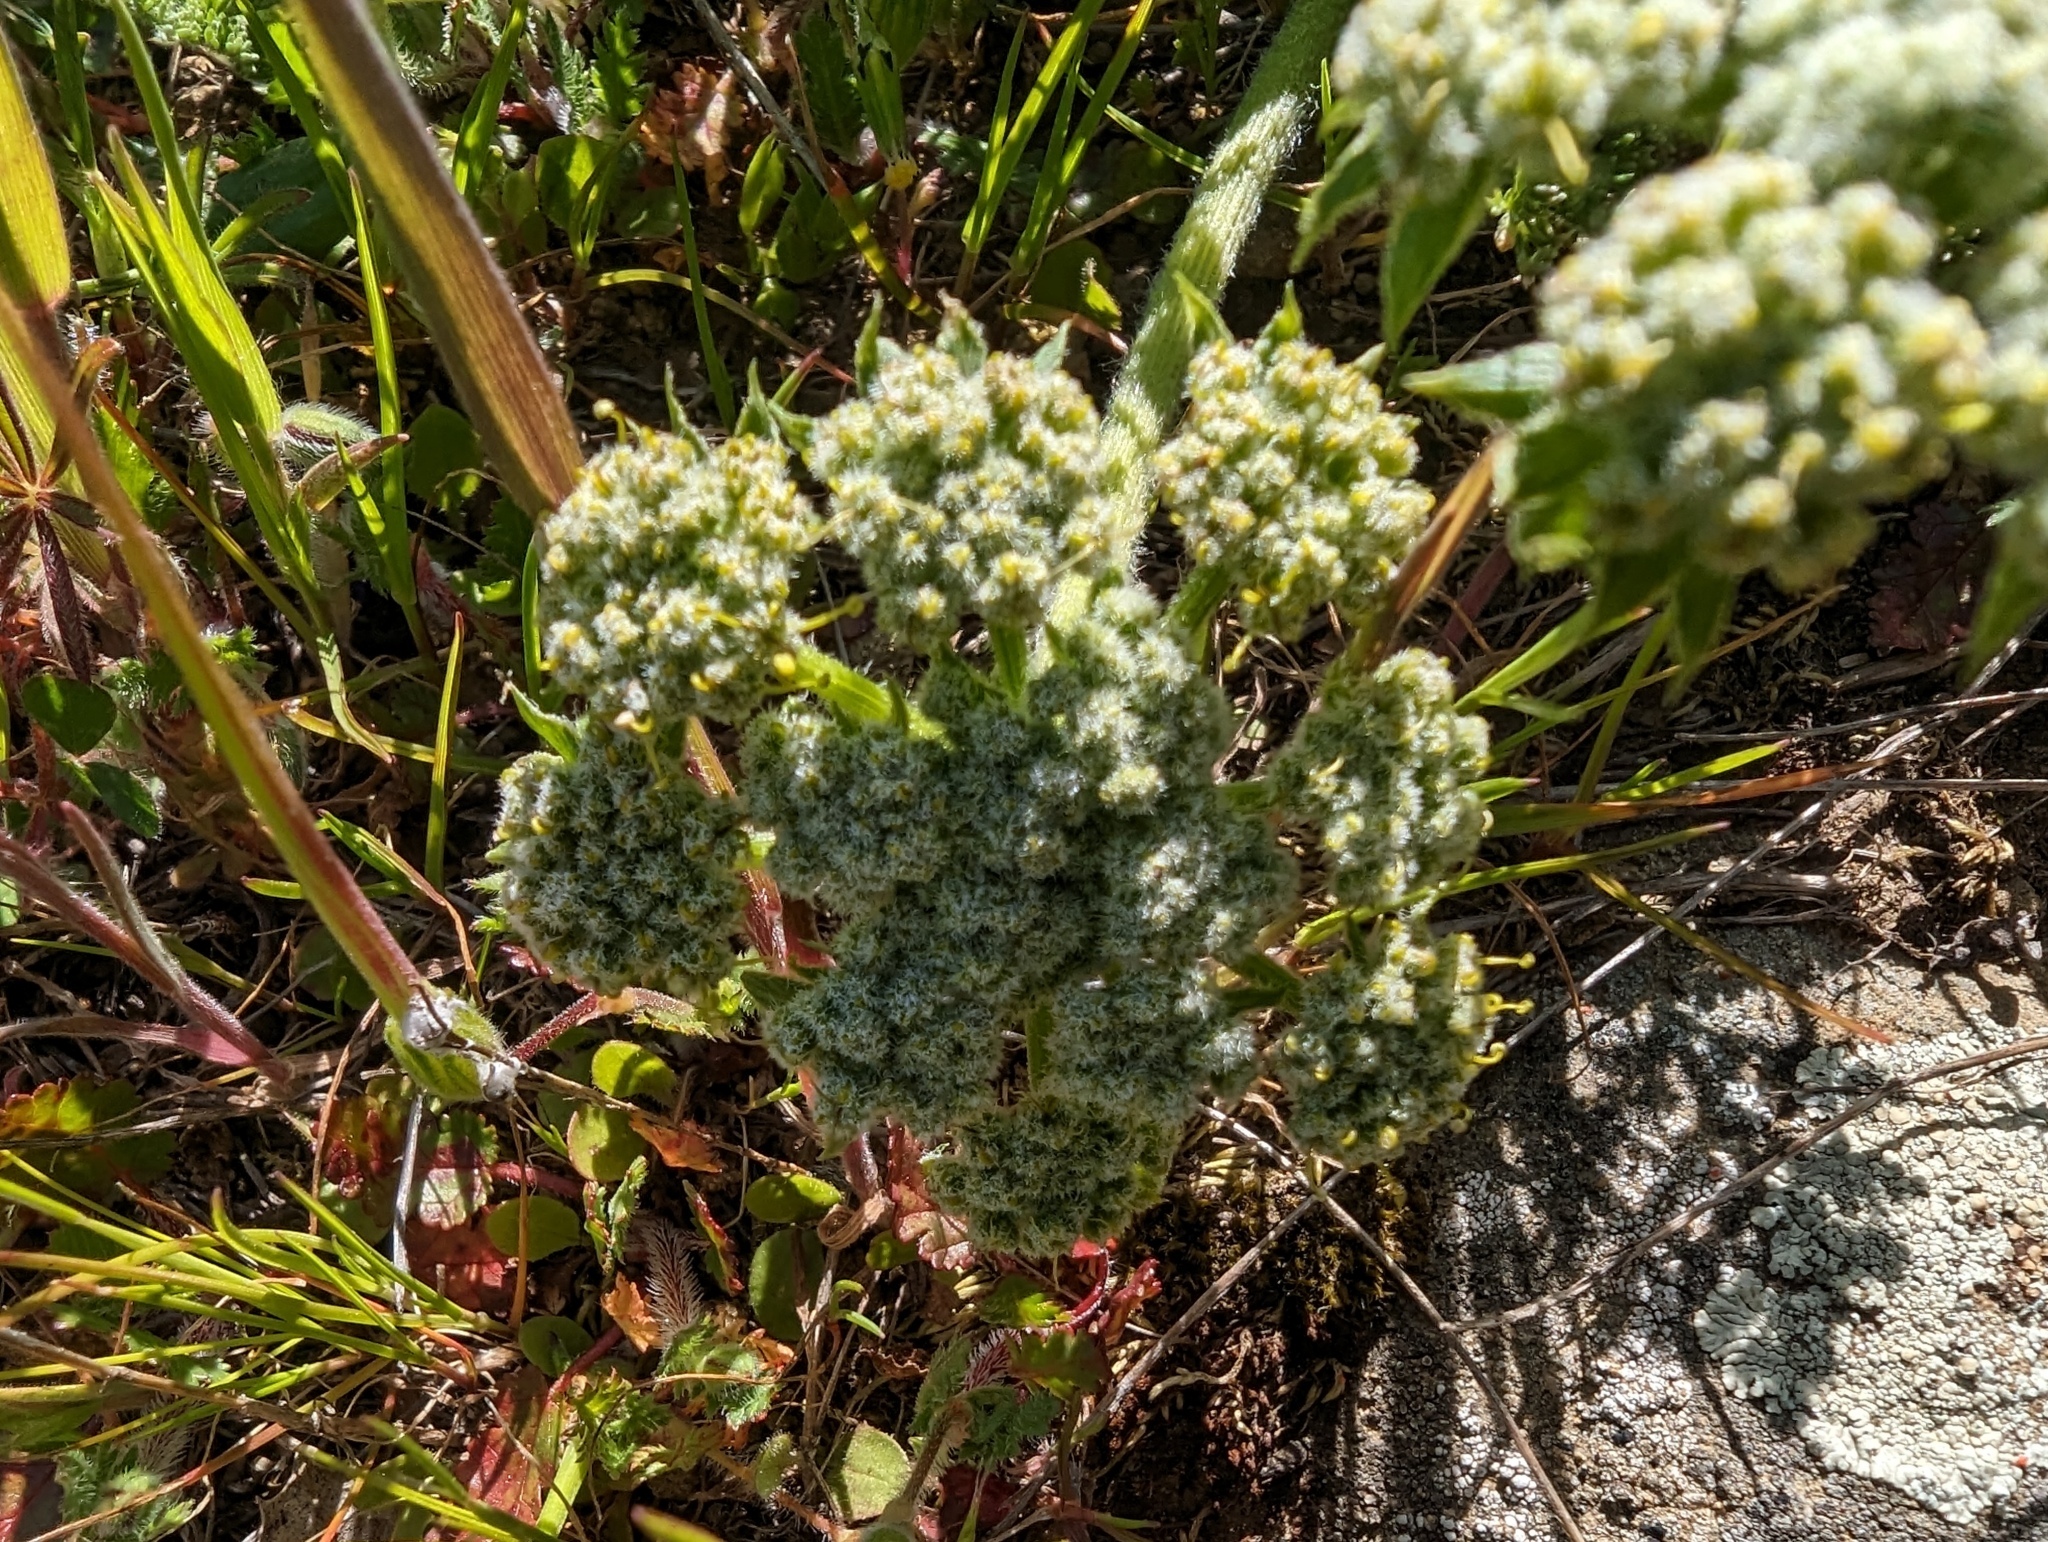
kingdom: Plantae
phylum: Tracheophyta
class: Magnoliopsida
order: Apiales
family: Apiaceae
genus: Lomatium
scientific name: Lomatium dasycarpum
